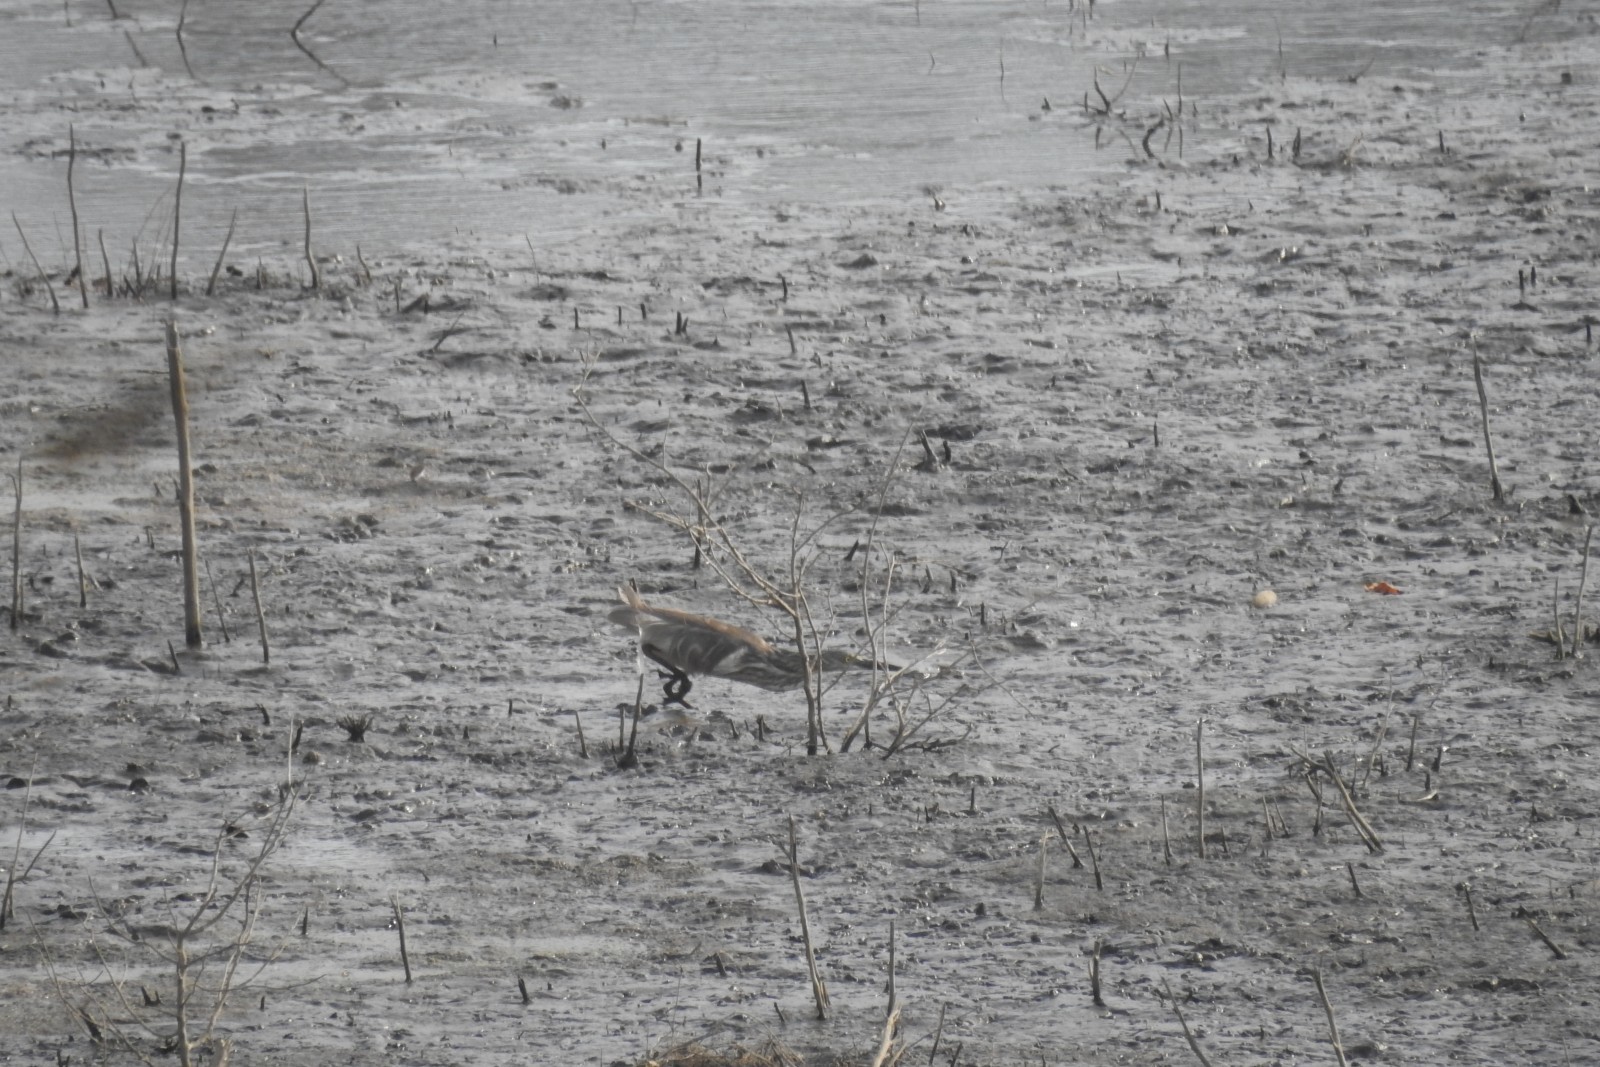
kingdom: Animalia
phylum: Chordata
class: Aves
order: Pelecaniformes
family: Ardeidae
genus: Ardeola
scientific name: Ardeola grayii
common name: Indian pond heron
